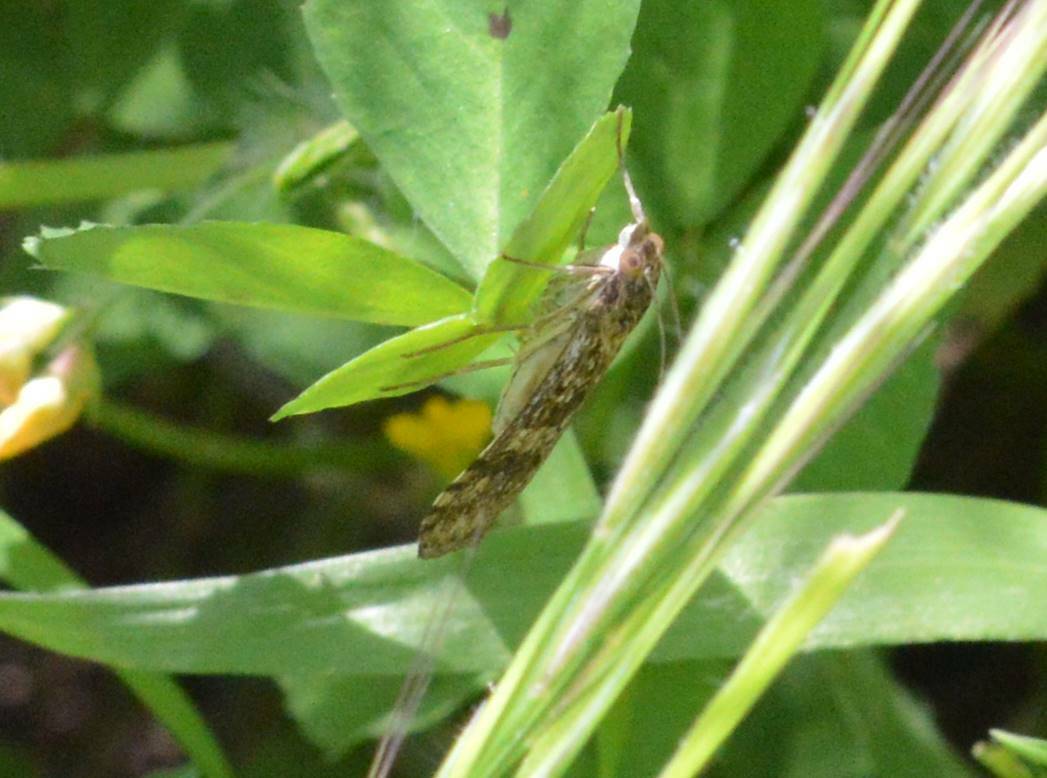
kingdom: Animalia
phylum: Arthropoda
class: Insecta
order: Lepidoptera
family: Crambidae
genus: Nomophila
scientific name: Nomophila noctuella
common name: Rush veneer
